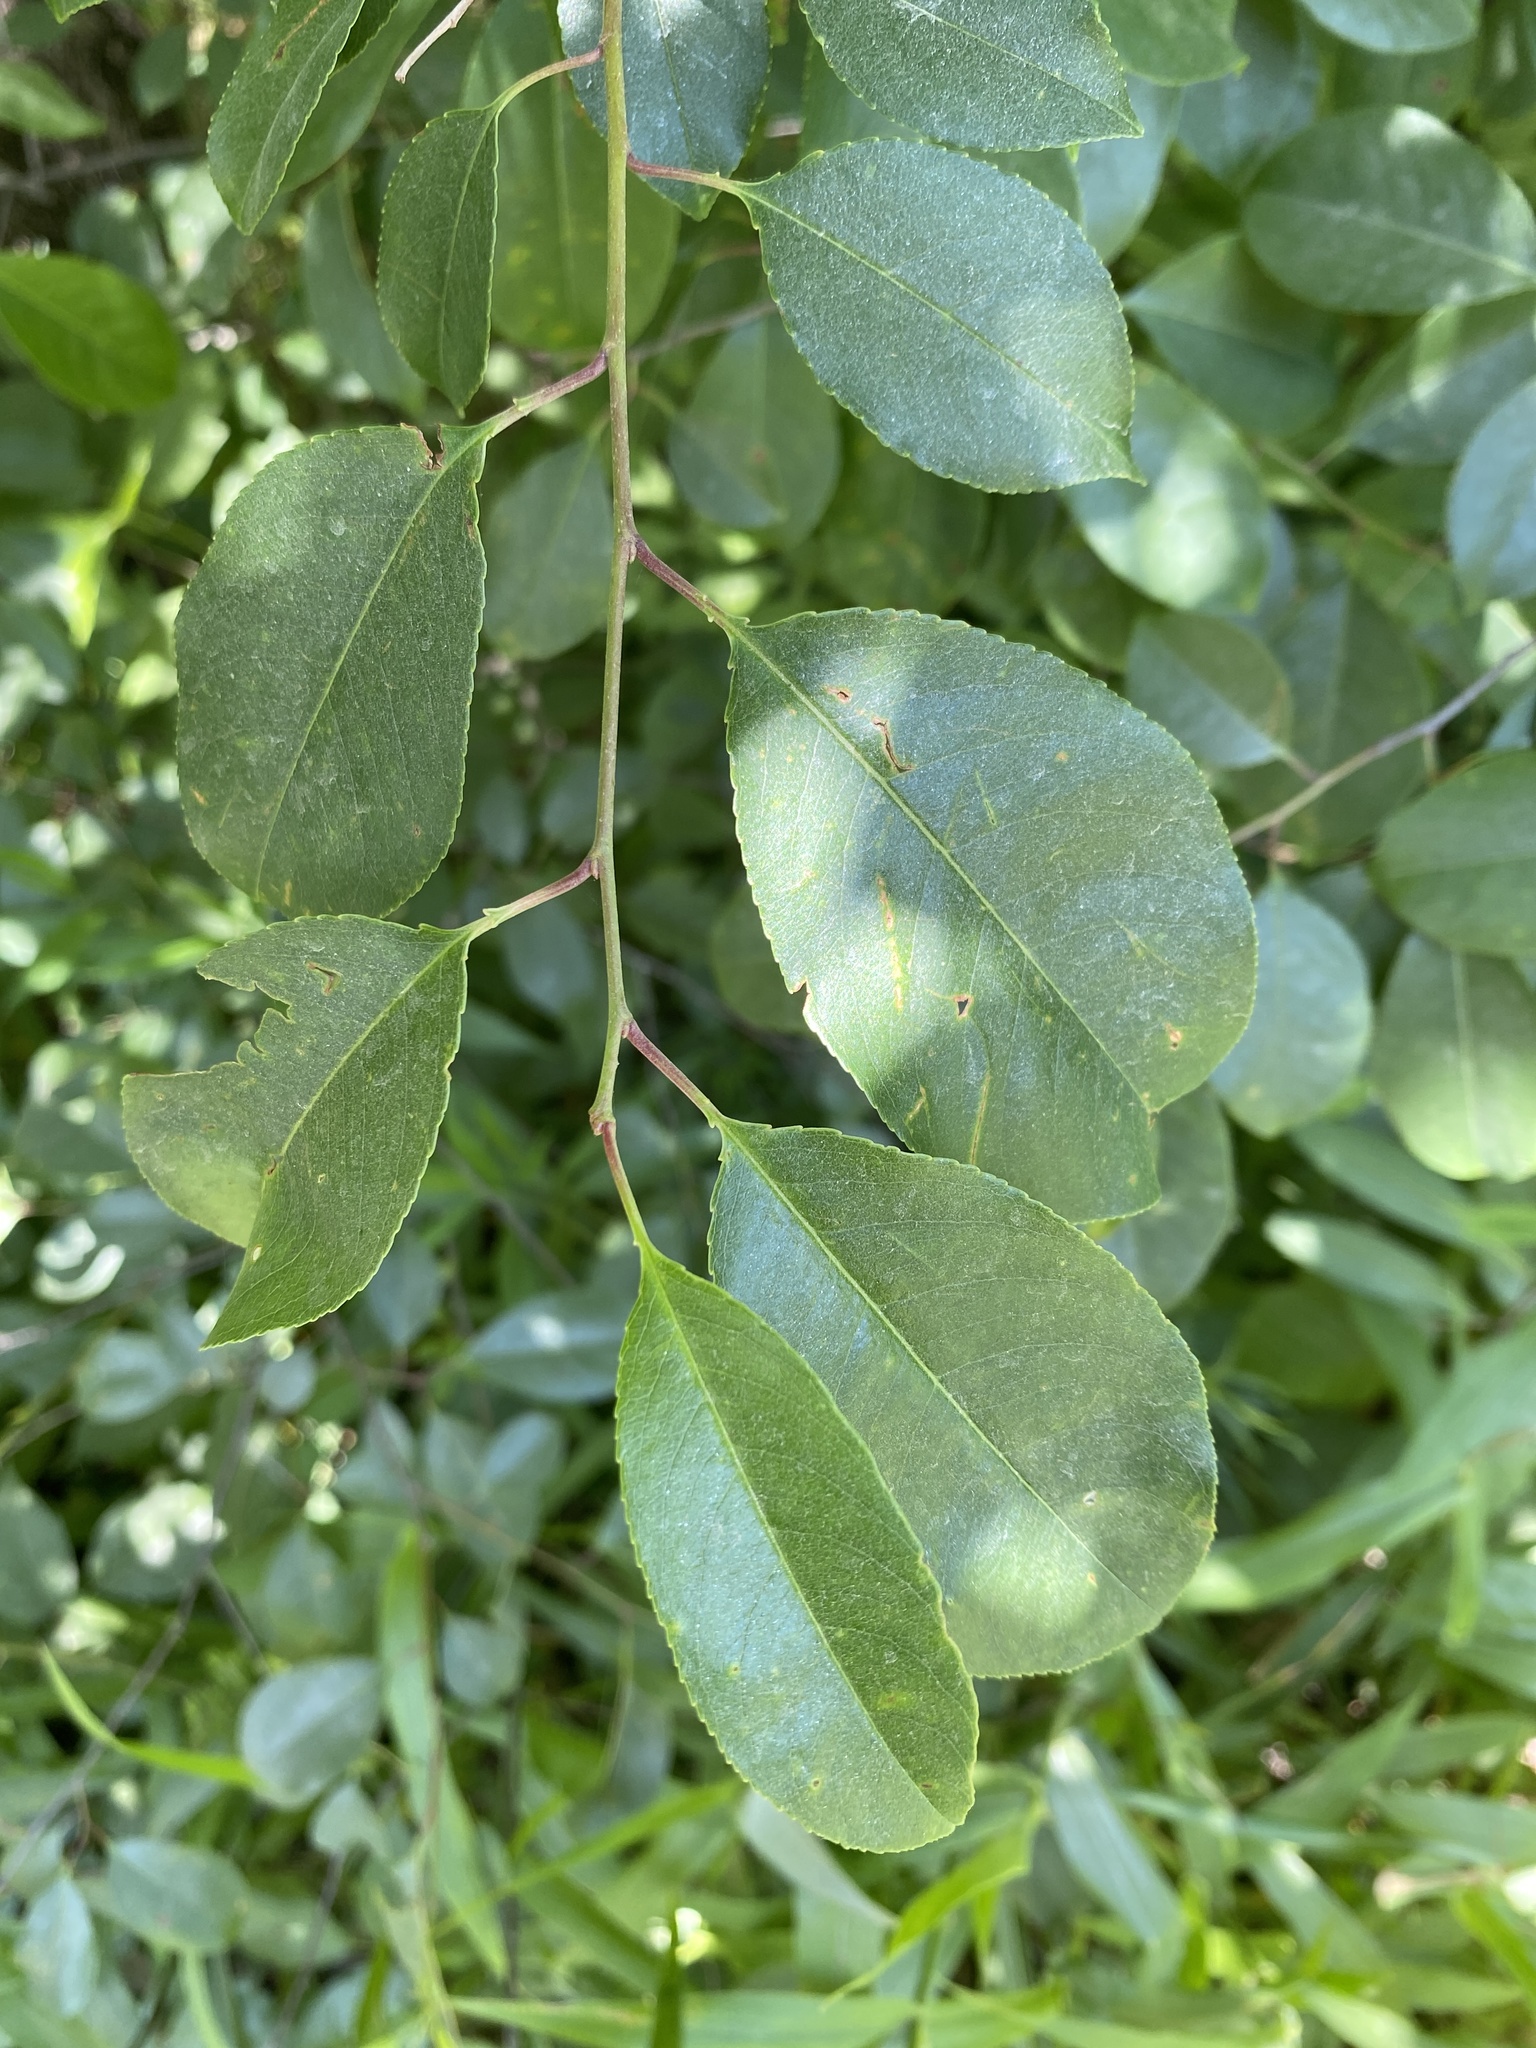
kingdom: Plantae
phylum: Tracheophyta
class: Magnoliopsida
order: Rosales
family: Rosaceae
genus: Prunus
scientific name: Prunus serotina
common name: Black cherry
